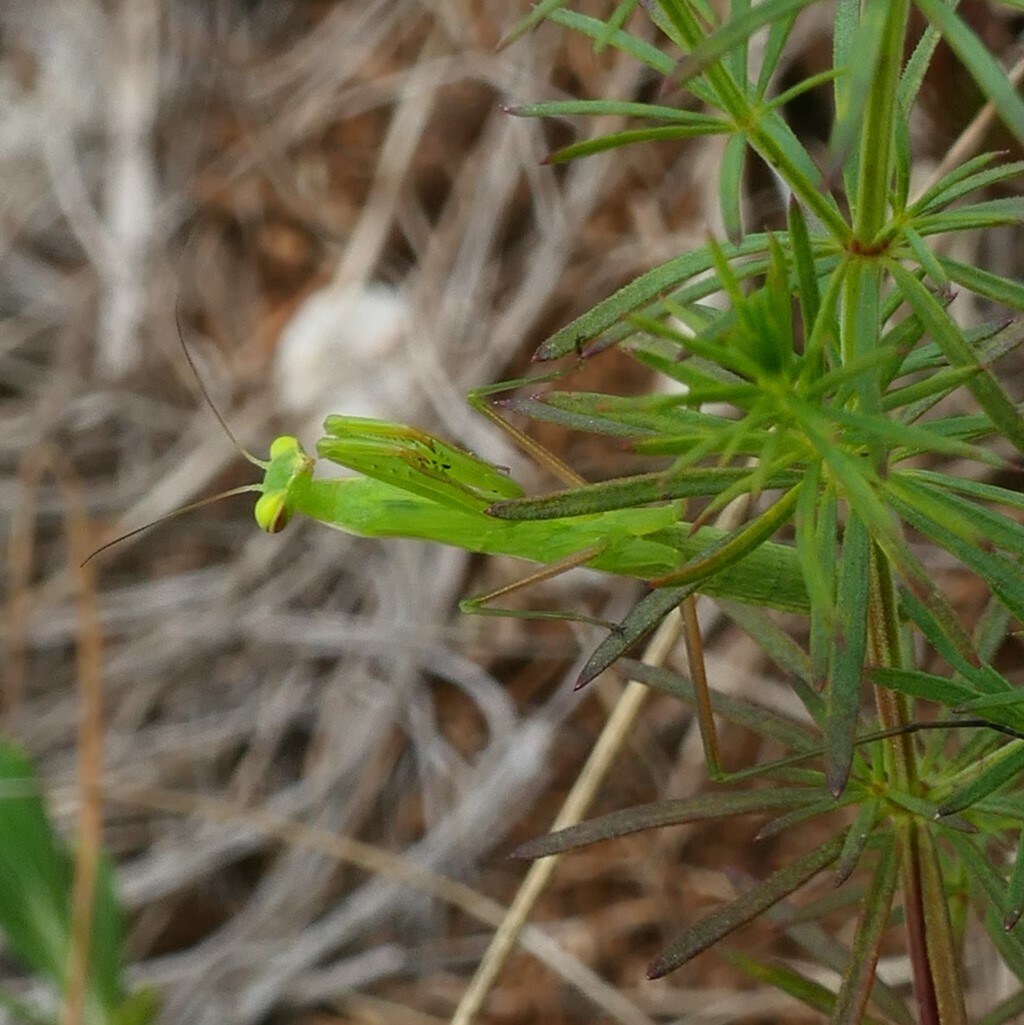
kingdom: Animalia
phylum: Arthropoda
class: Insecta
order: Mantodea
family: Mantidae
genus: Mantis
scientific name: Mantis religiosa
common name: Praying mantis
